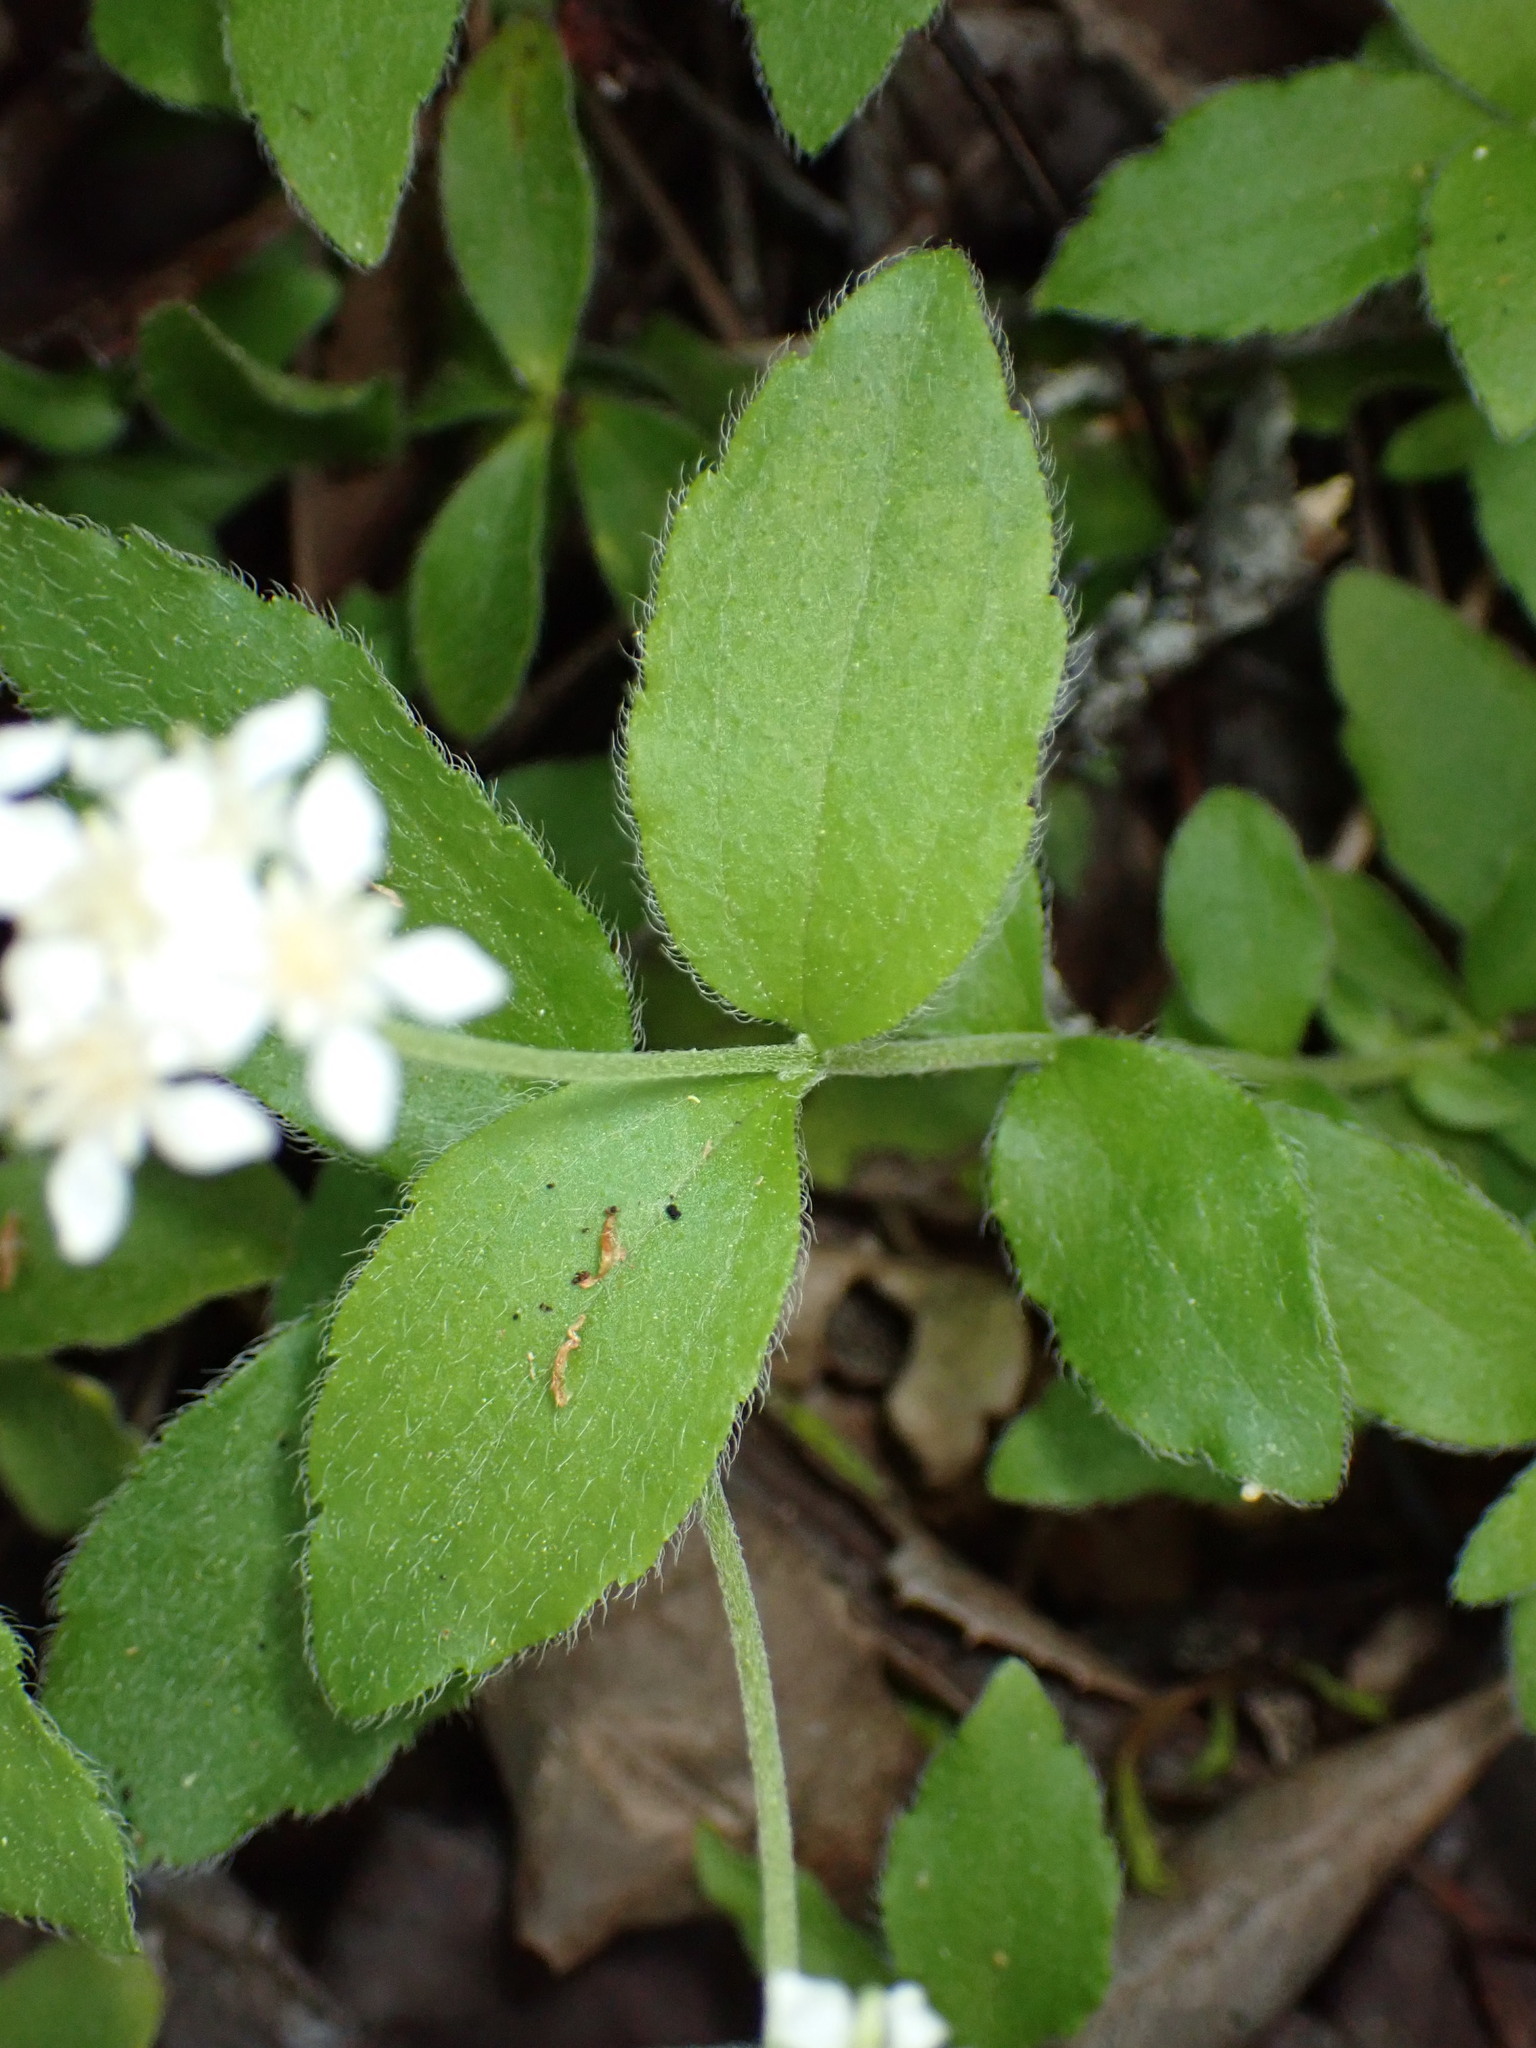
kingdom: Plantae
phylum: Tracheophyta
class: Magnoliopsida
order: Cornales
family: Hydrangeaceae
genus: Whipplea
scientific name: Whipplea modesta
